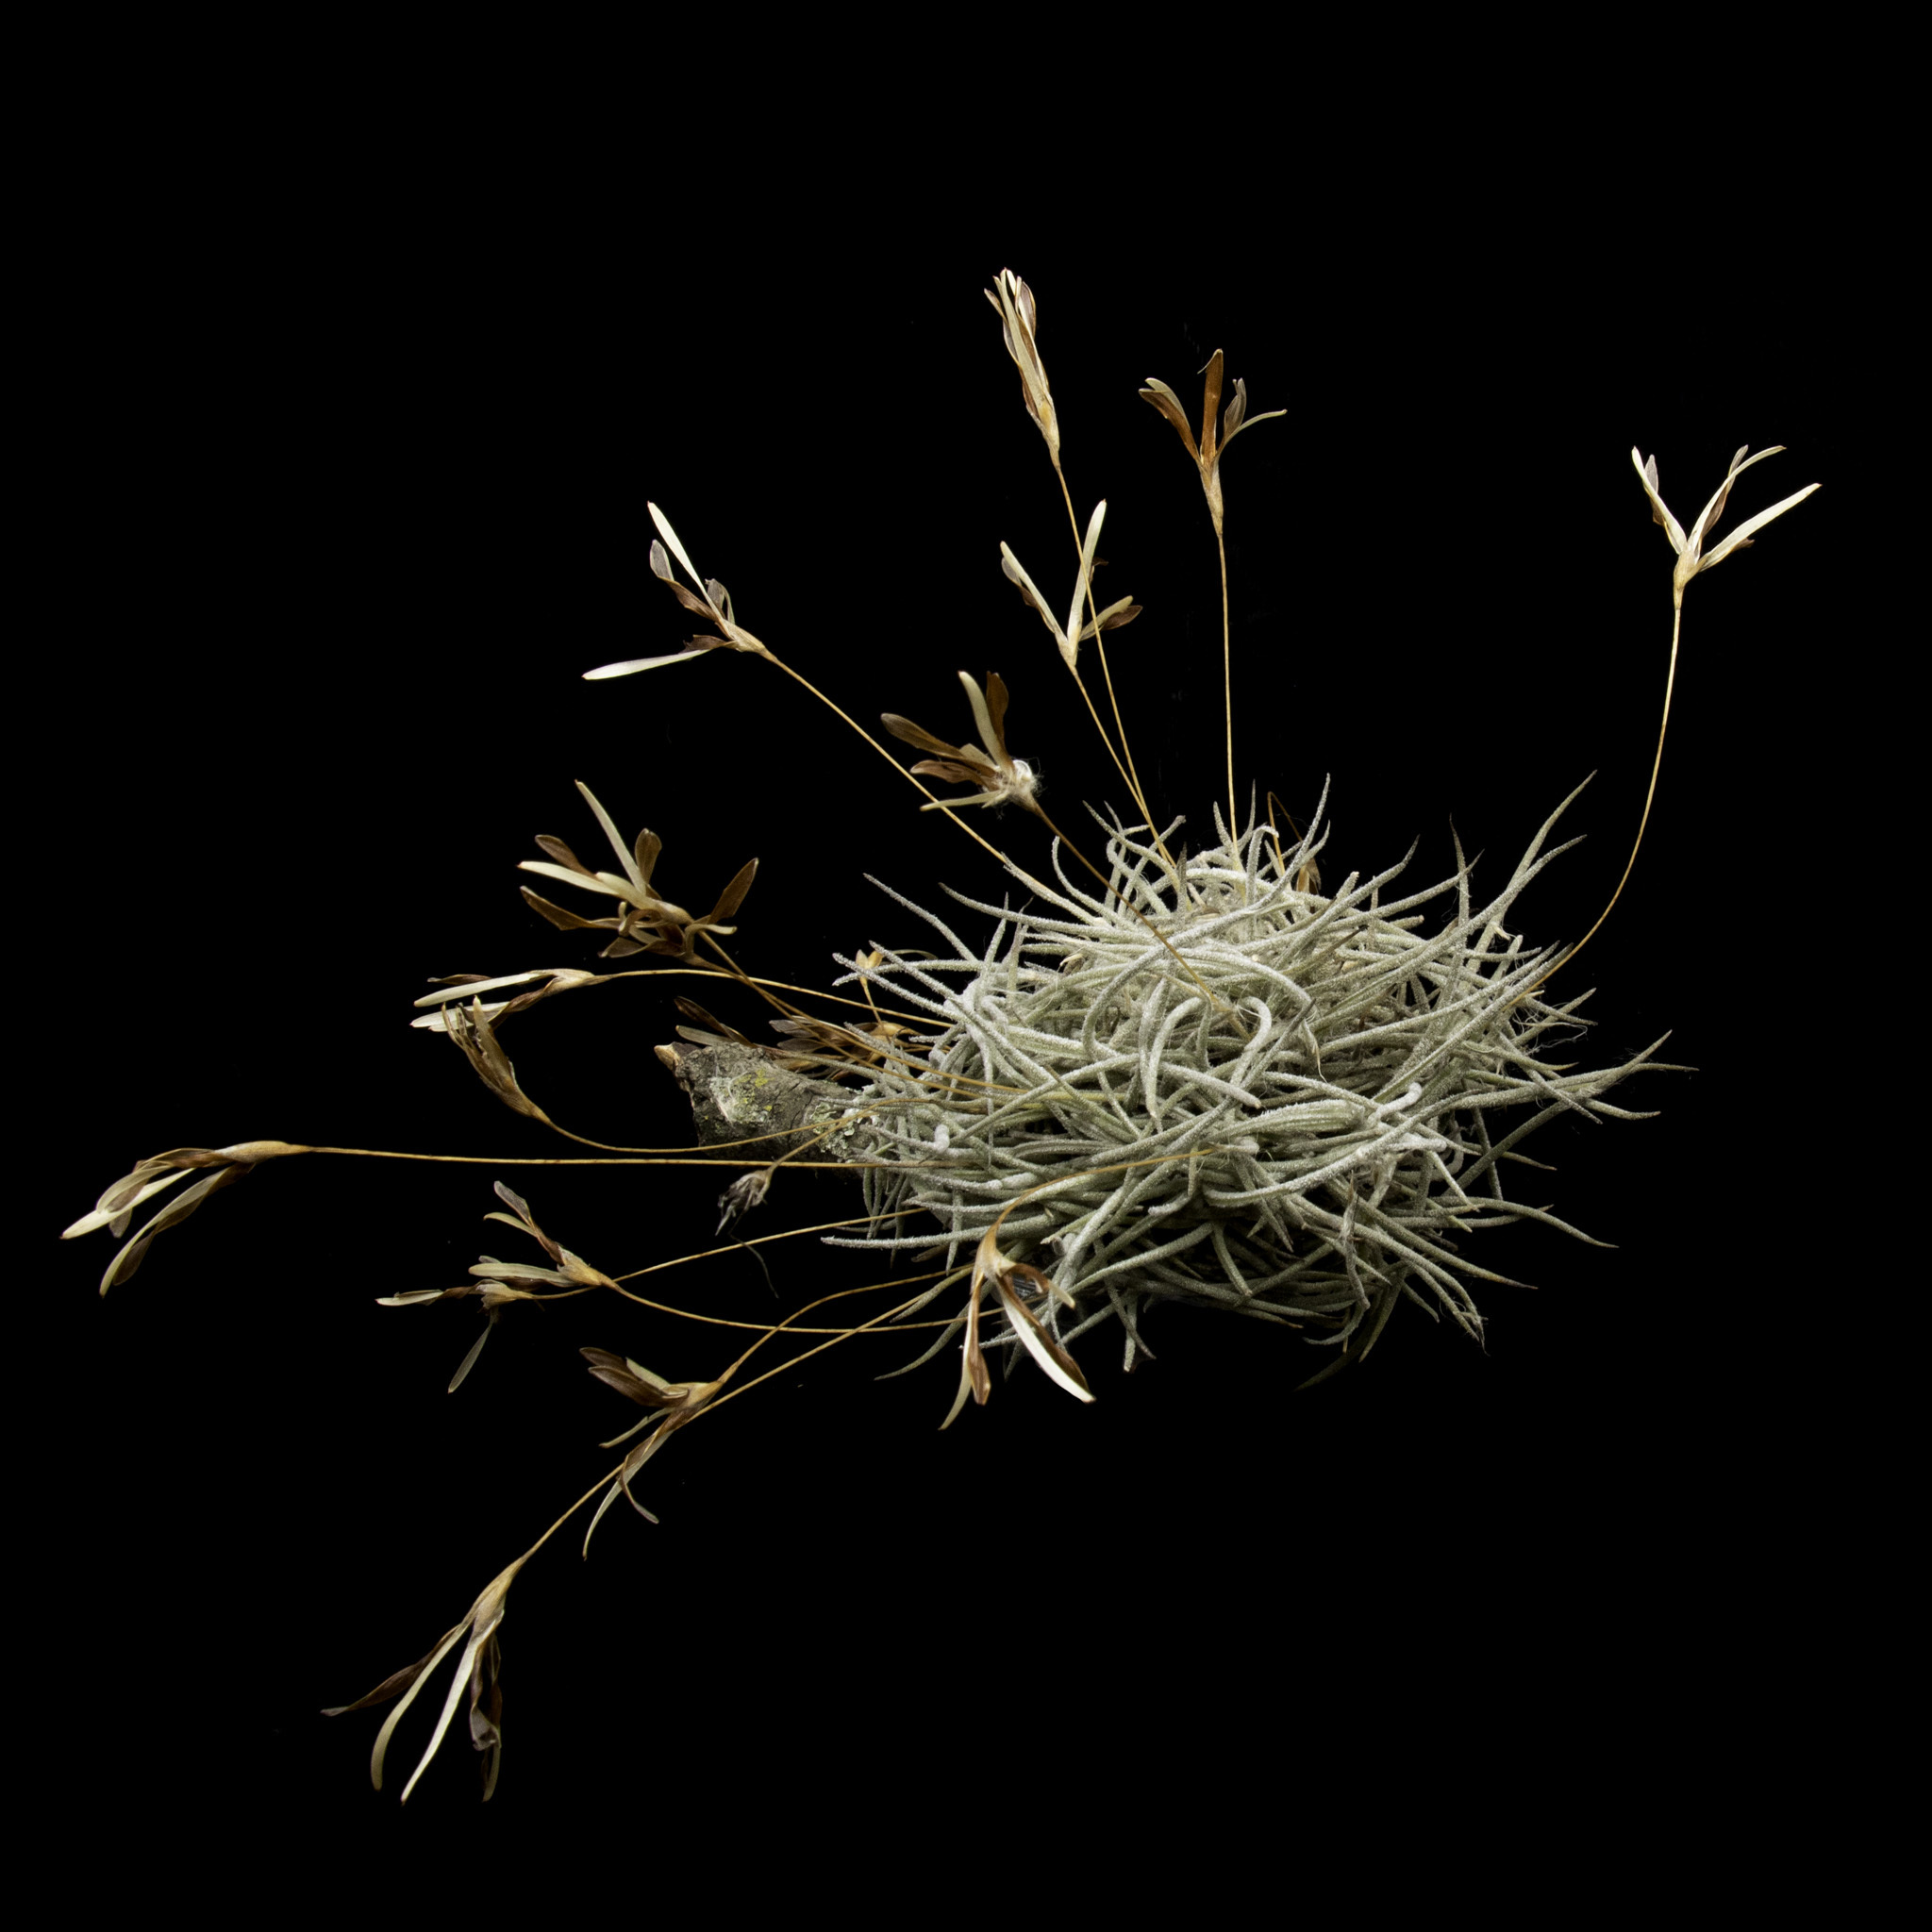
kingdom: Plantae
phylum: Tracheophyta
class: Liliopsida
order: Poales
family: Bromeliaceae
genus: Tillandsia
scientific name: Tillandsia recurvata
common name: Small ballmoss
